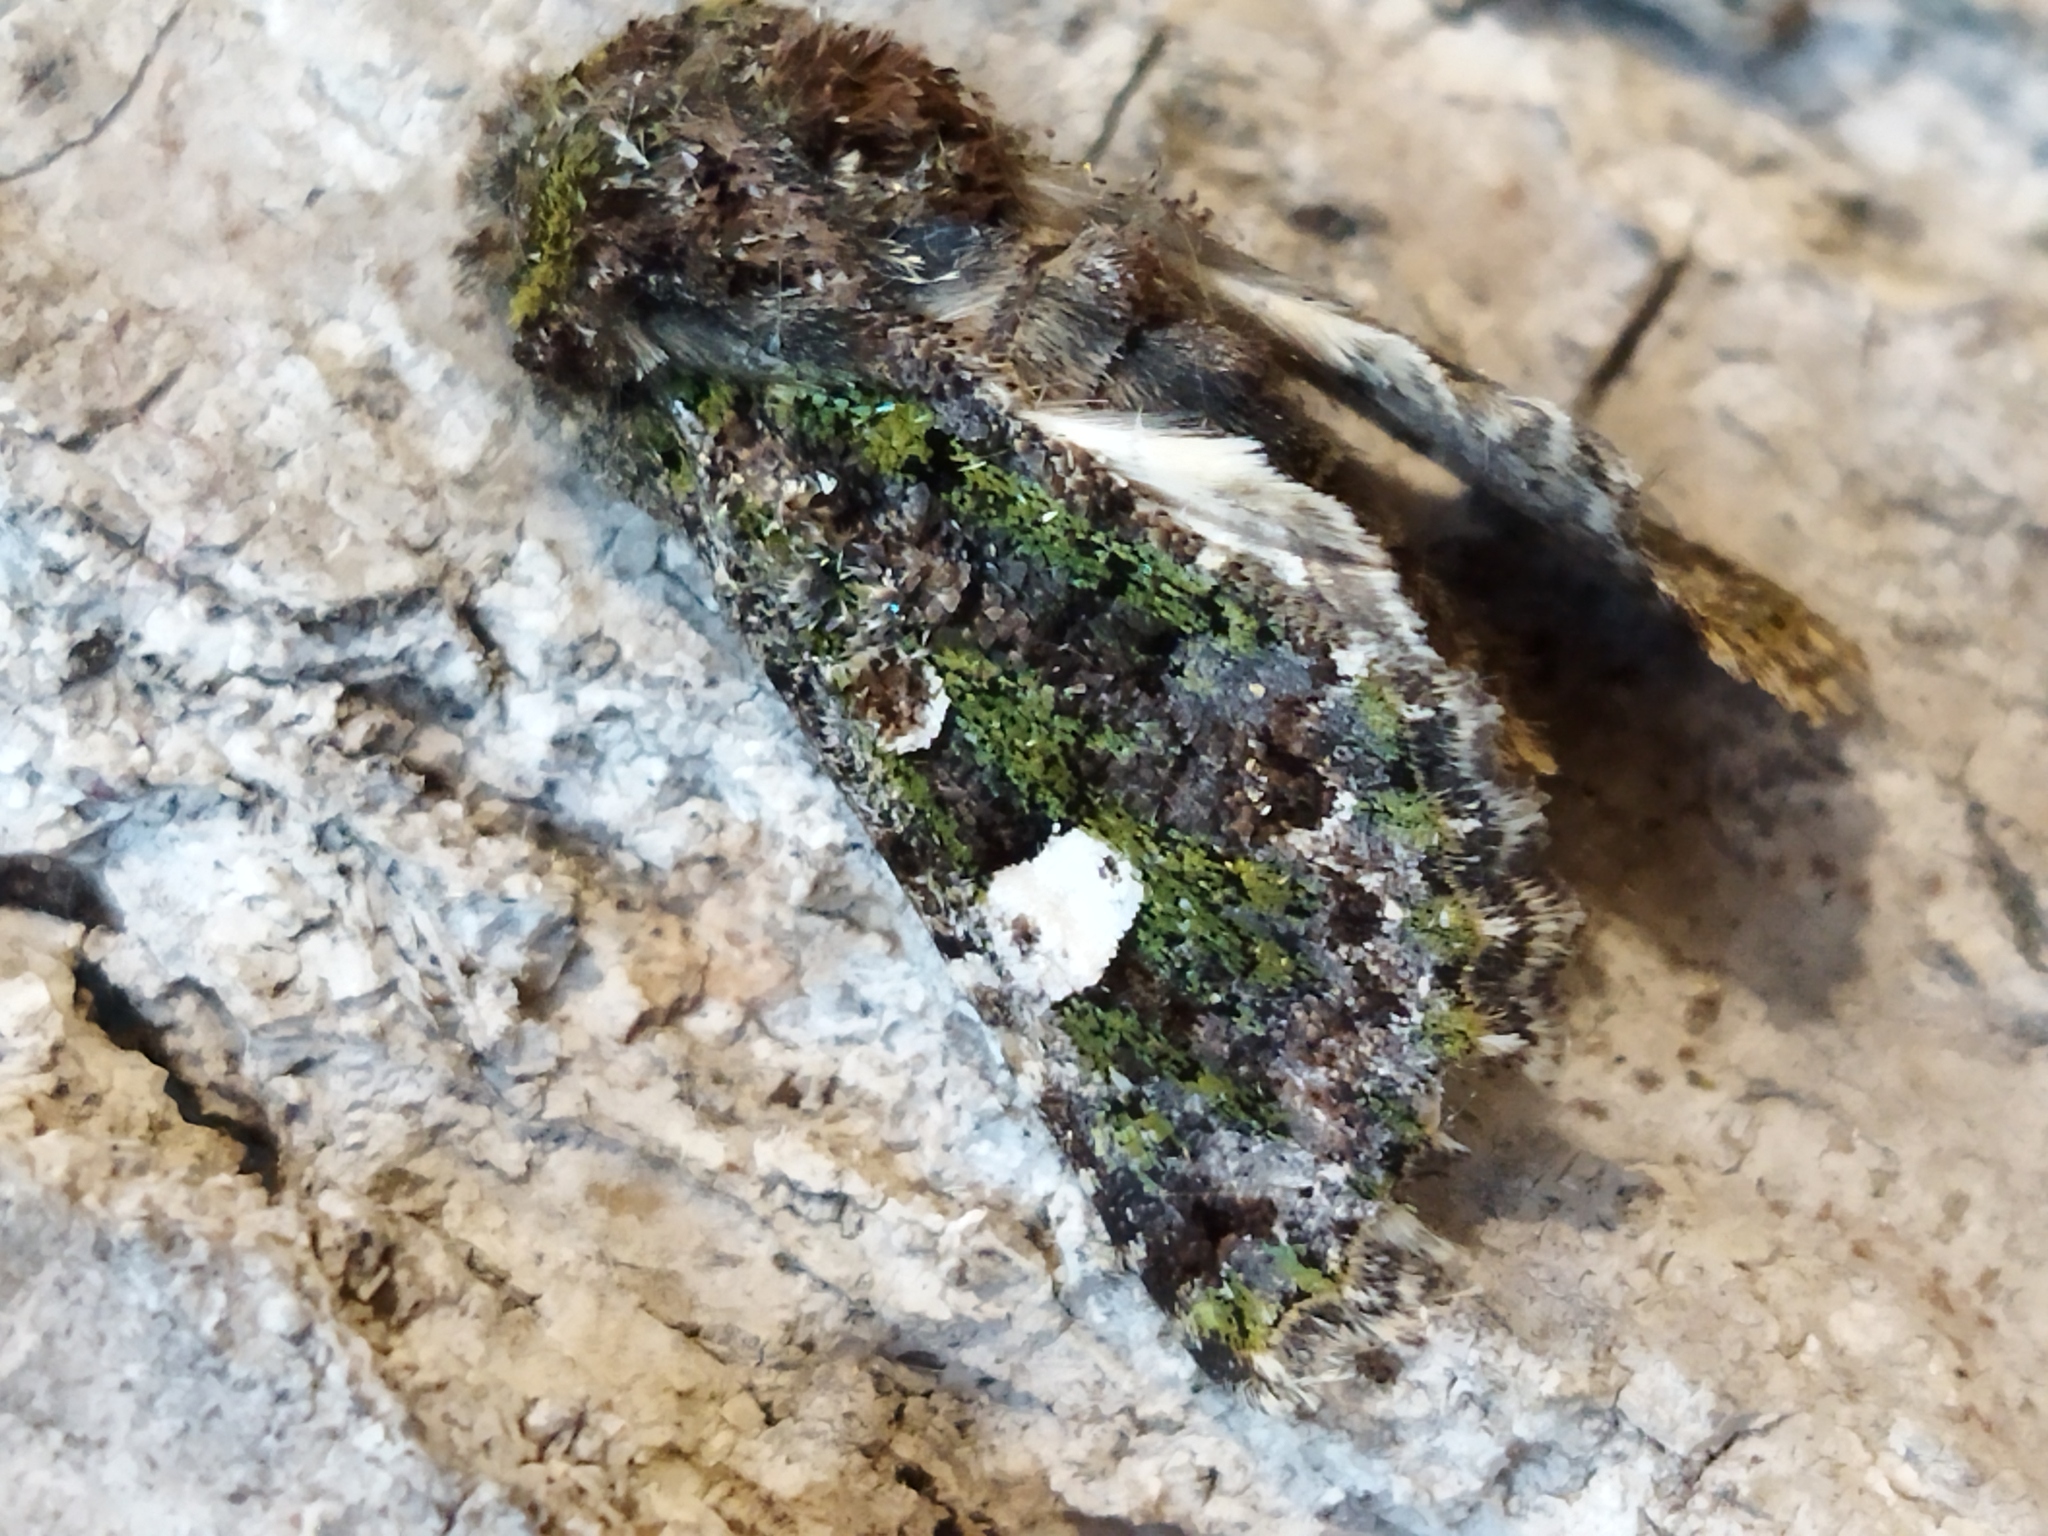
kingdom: Animalia
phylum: Arthropoda
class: Insecta
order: Lepidoptera
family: Noctuidae
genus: Valeria
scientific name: Valeria oleagina
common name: Green-brindled dot
